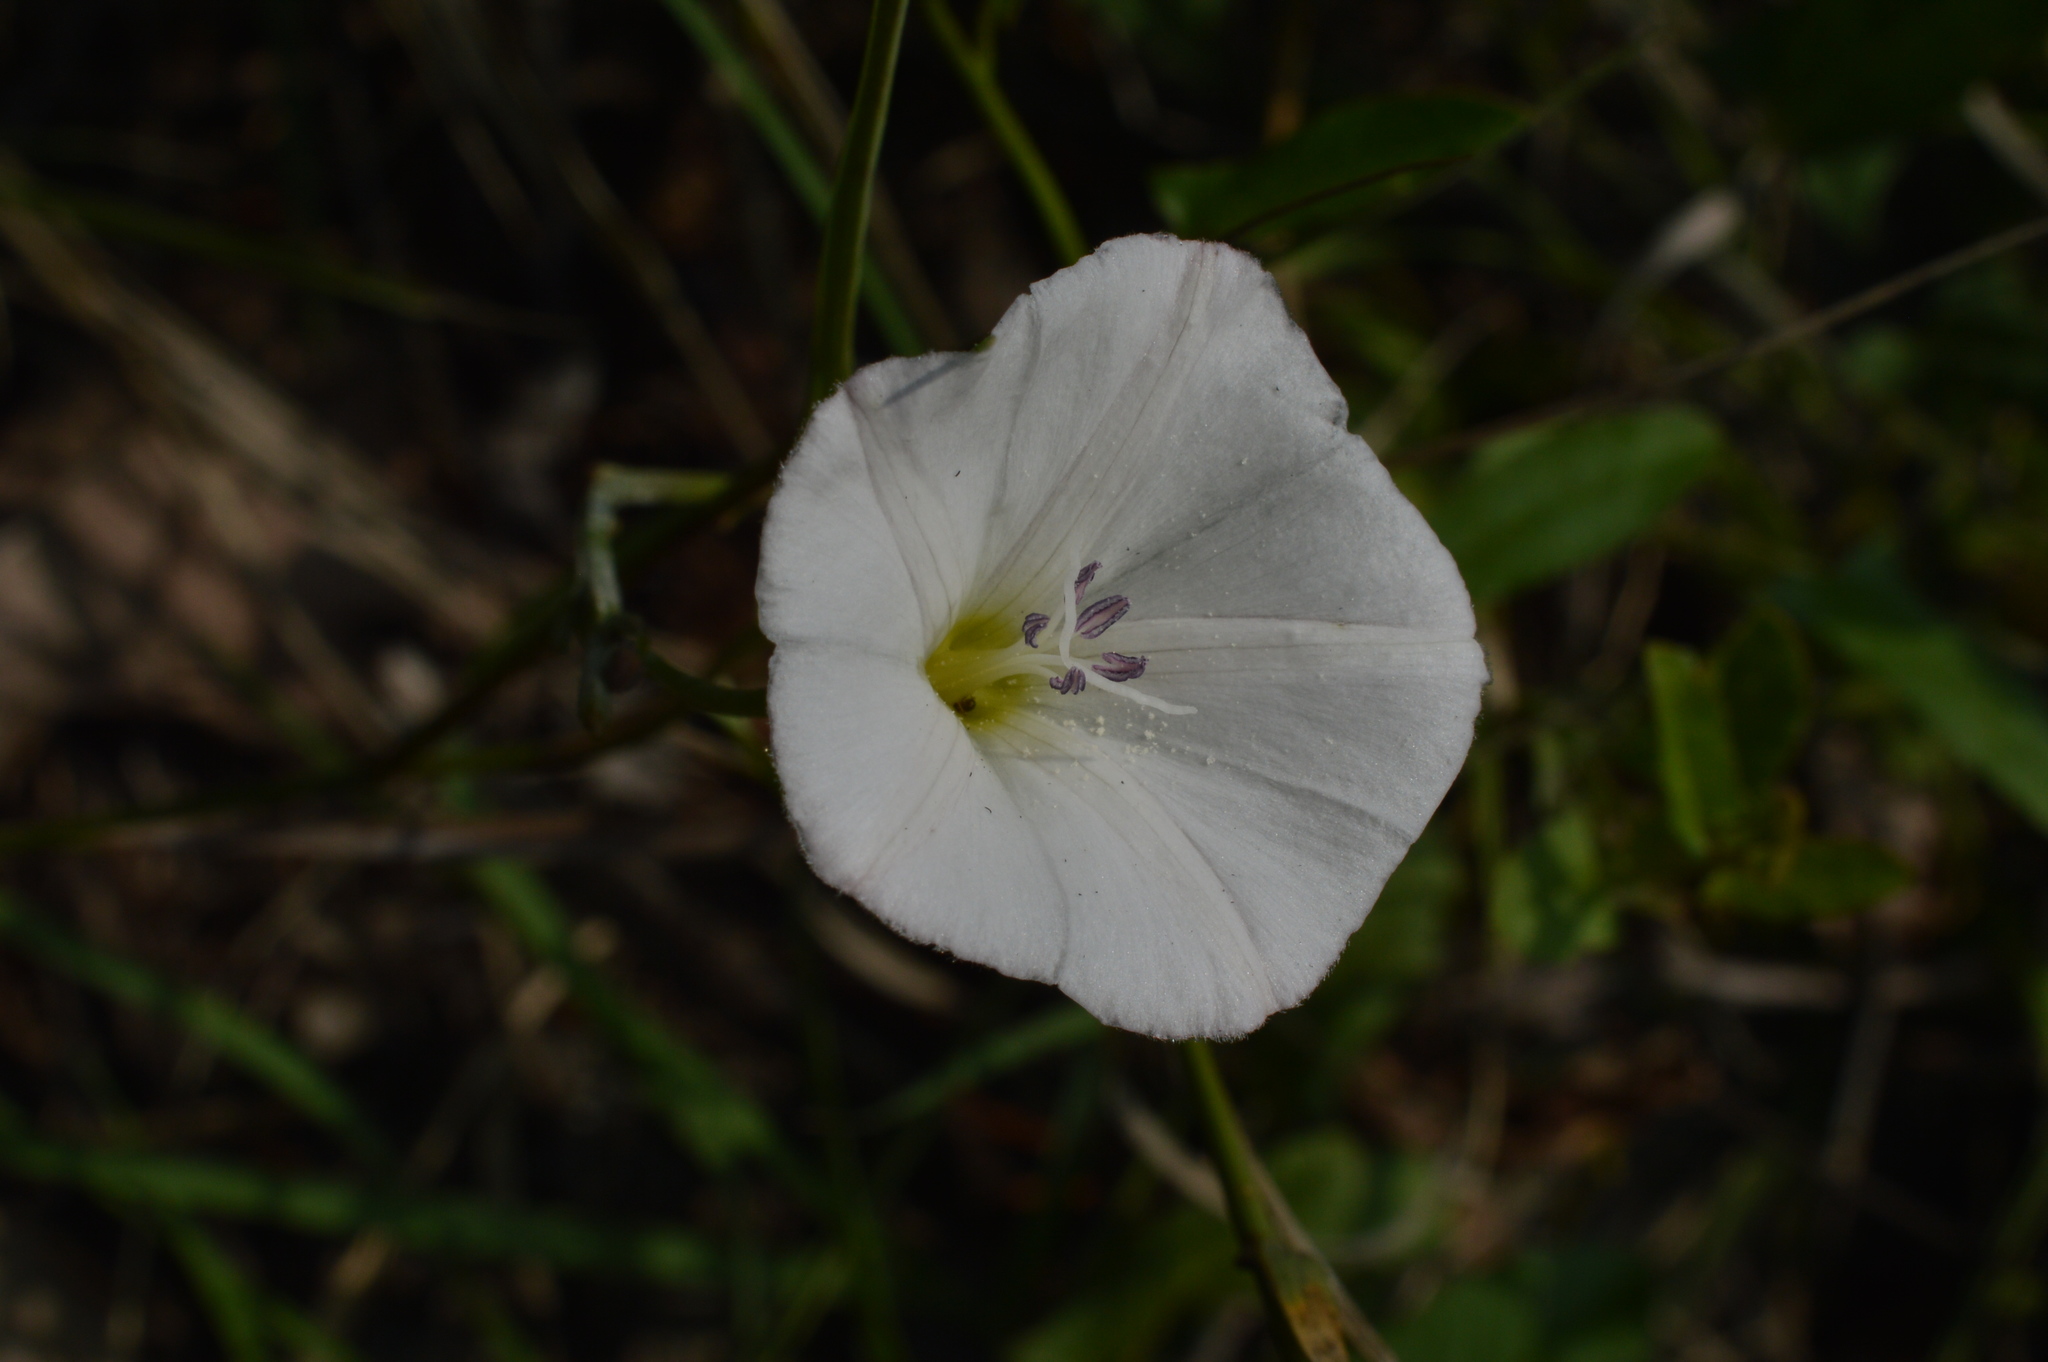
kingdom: Plantae
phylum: Tracheophyta
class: Magnoliopsida
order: Solanales
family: Convolvulaceae
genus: Convolvulus
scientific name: Convolvulus arvensis
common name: Field bindweed
